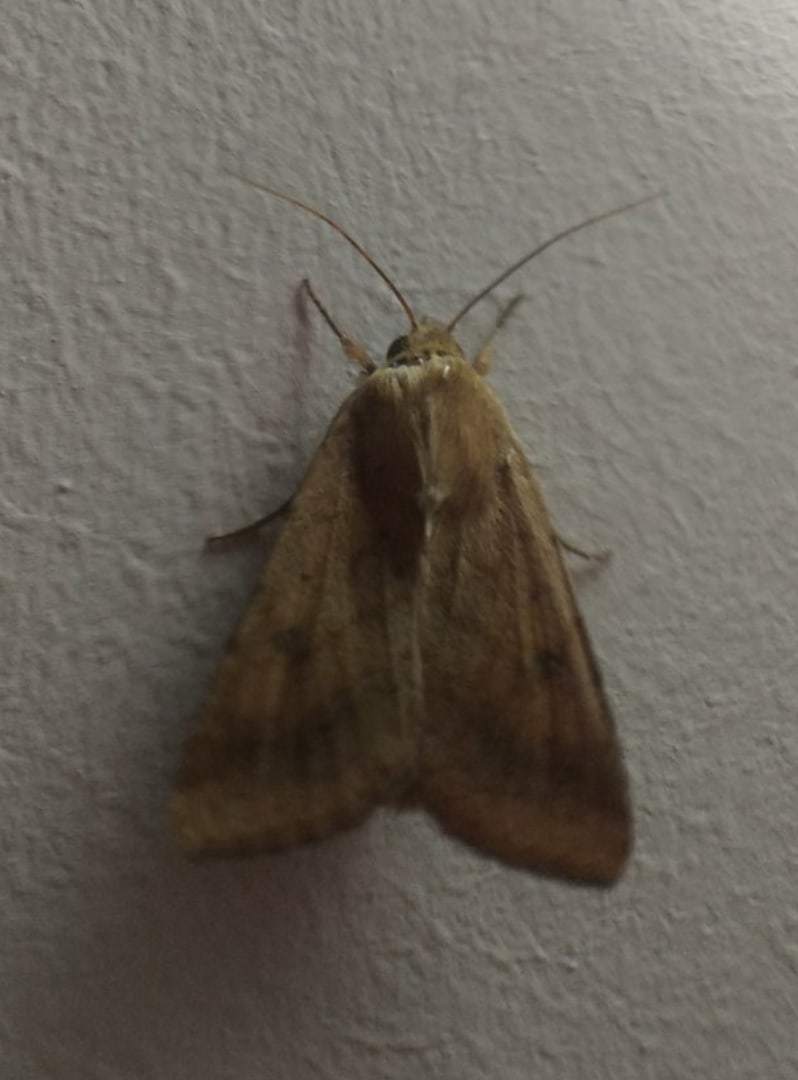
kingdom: Animalia
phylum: Arthropoda
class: Insecta
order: Lepidoptera
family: Noctuidae
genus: Helicoverpa
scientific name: Helicoverpa armigera
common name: Cotton bollworm
